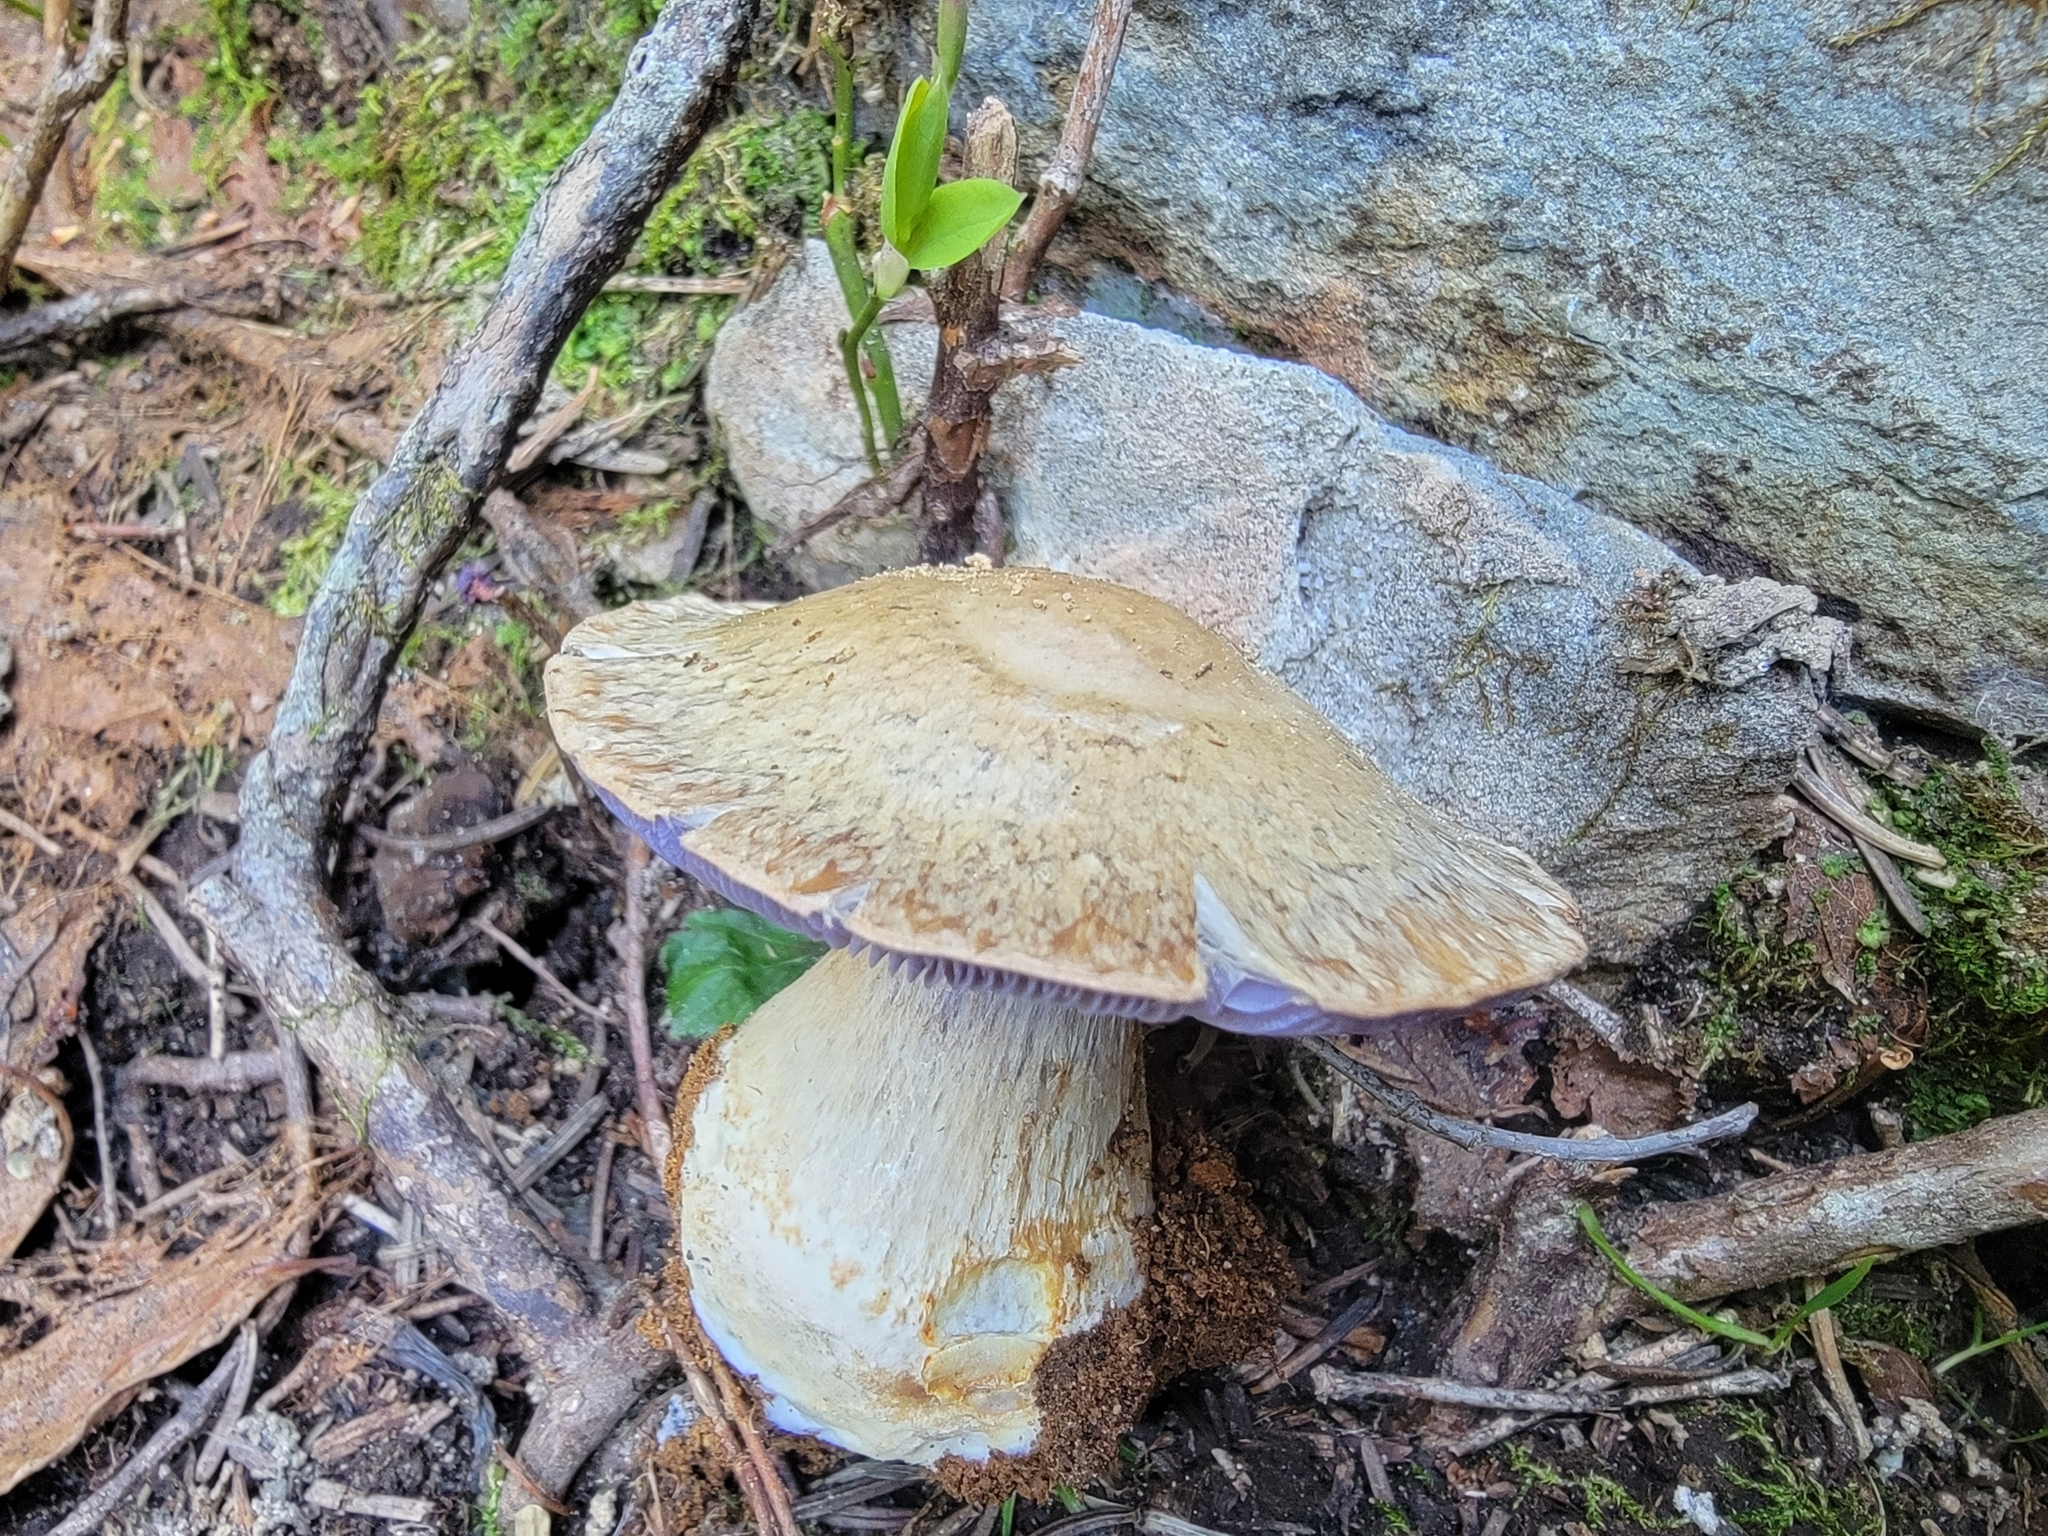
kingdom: Fungi
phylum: Basidiomycota
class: Agaricomycetes
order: Agaricales
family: Cortinariaceae
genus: Phlegmacium
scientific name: Phlegmacium subolivascens
